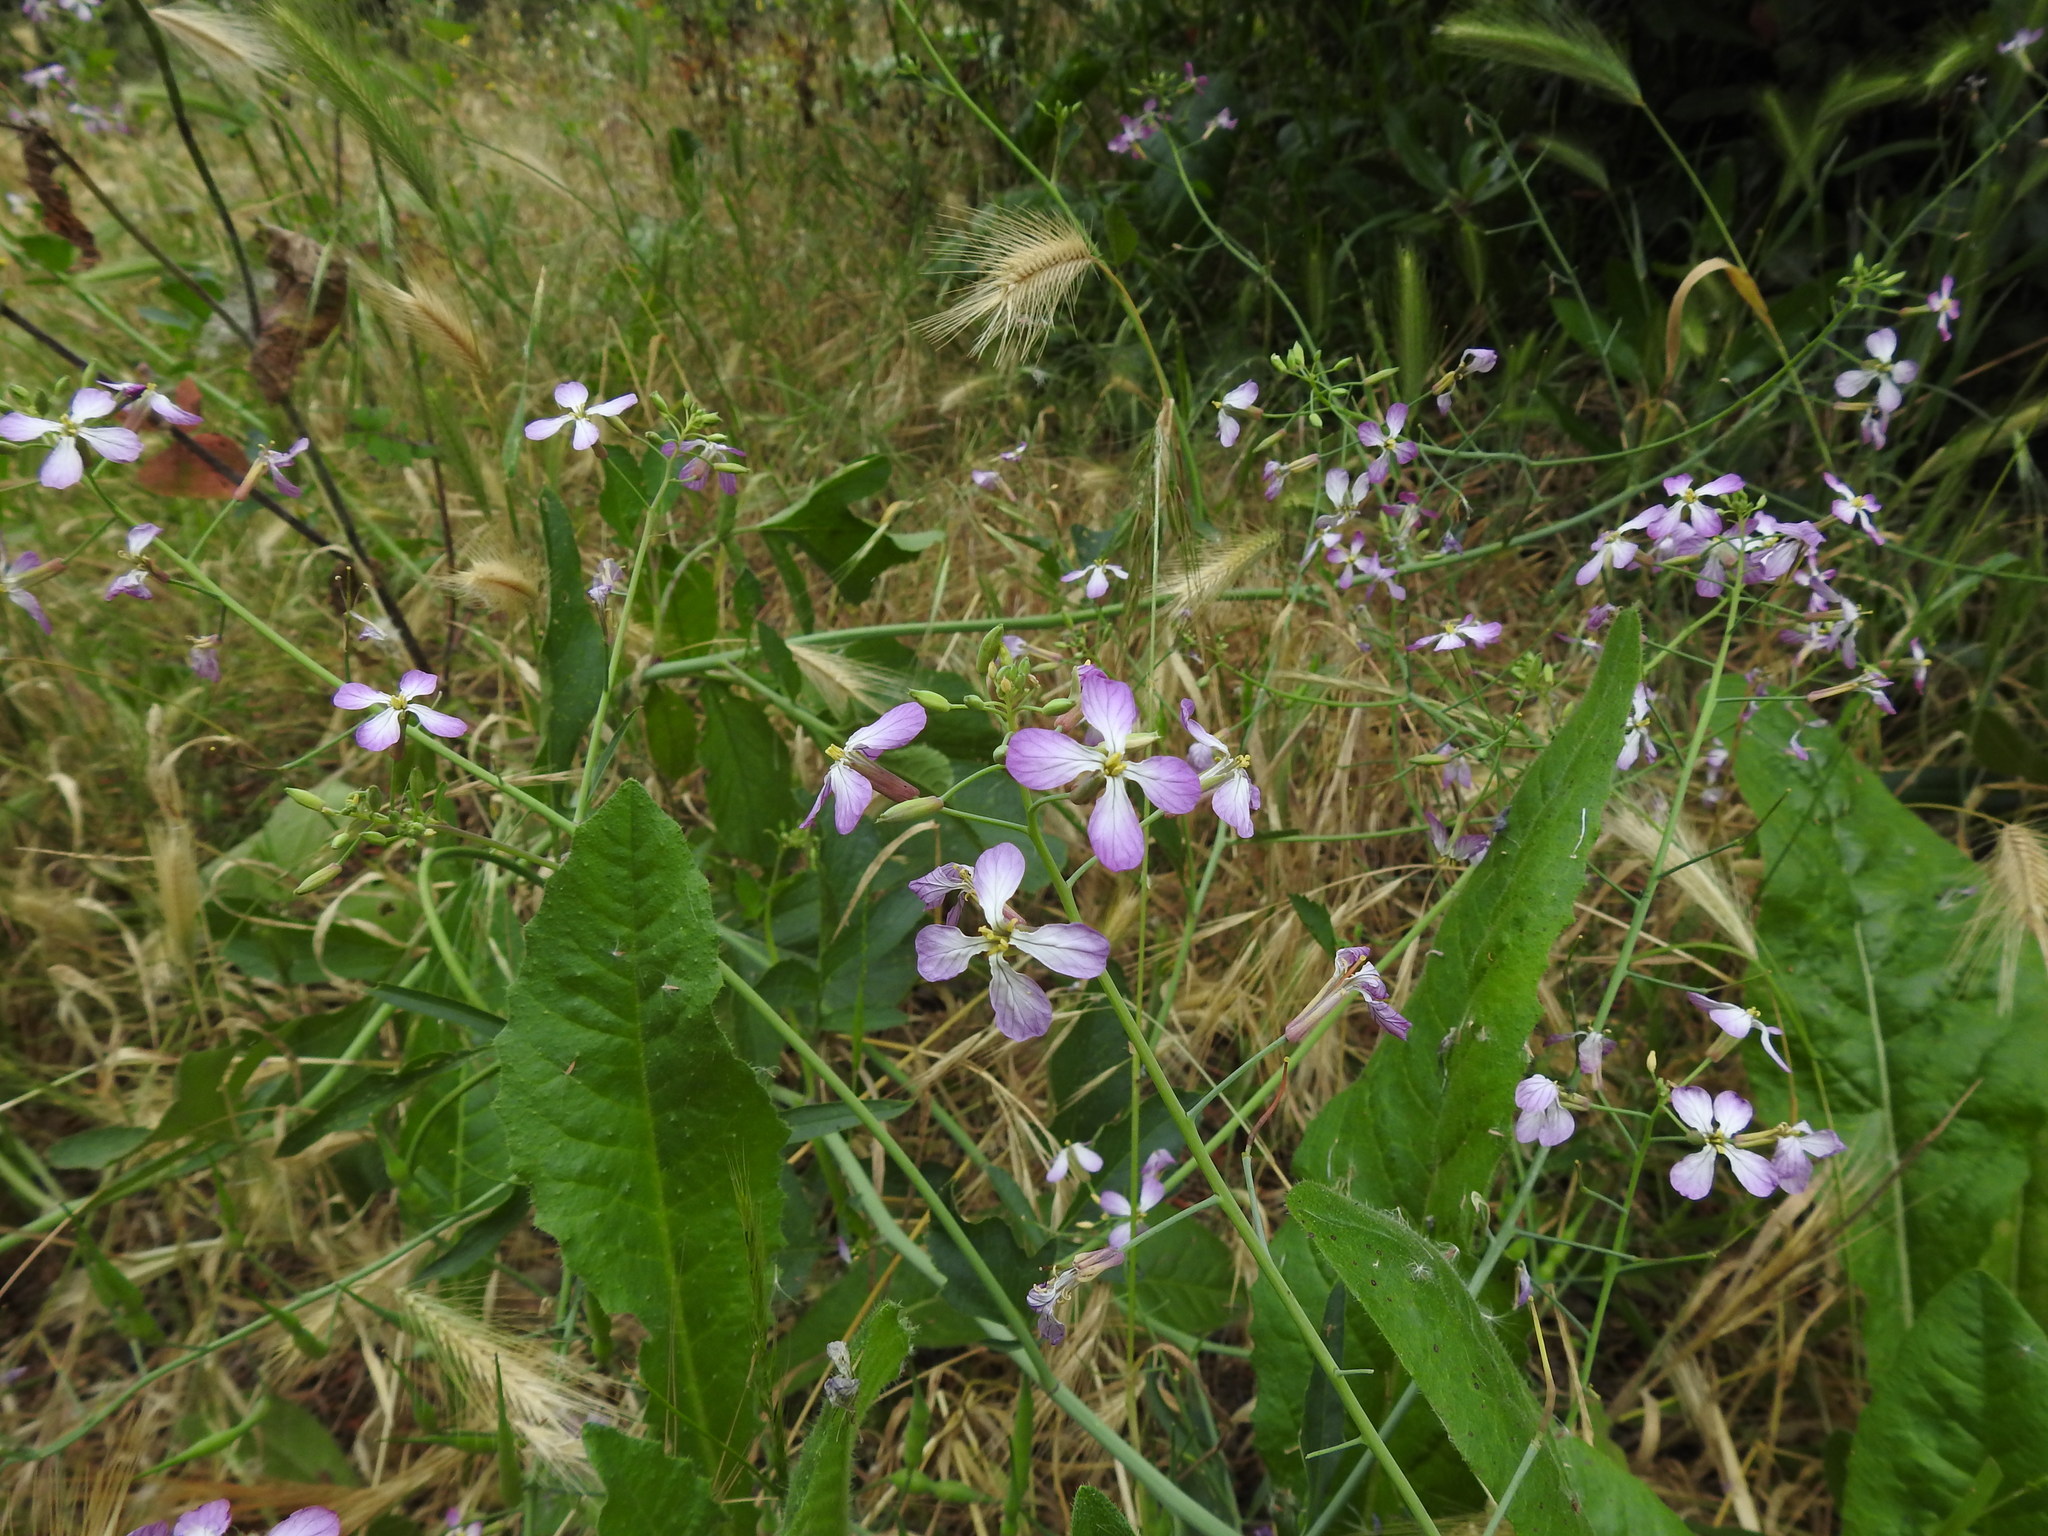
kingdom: Plantae
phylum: Tracheophyta
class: Magnoliopsida
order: Brassicales
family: Brassicaceae
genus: Raphanus
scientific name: Raphanus sativus
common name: Cultivated radish
